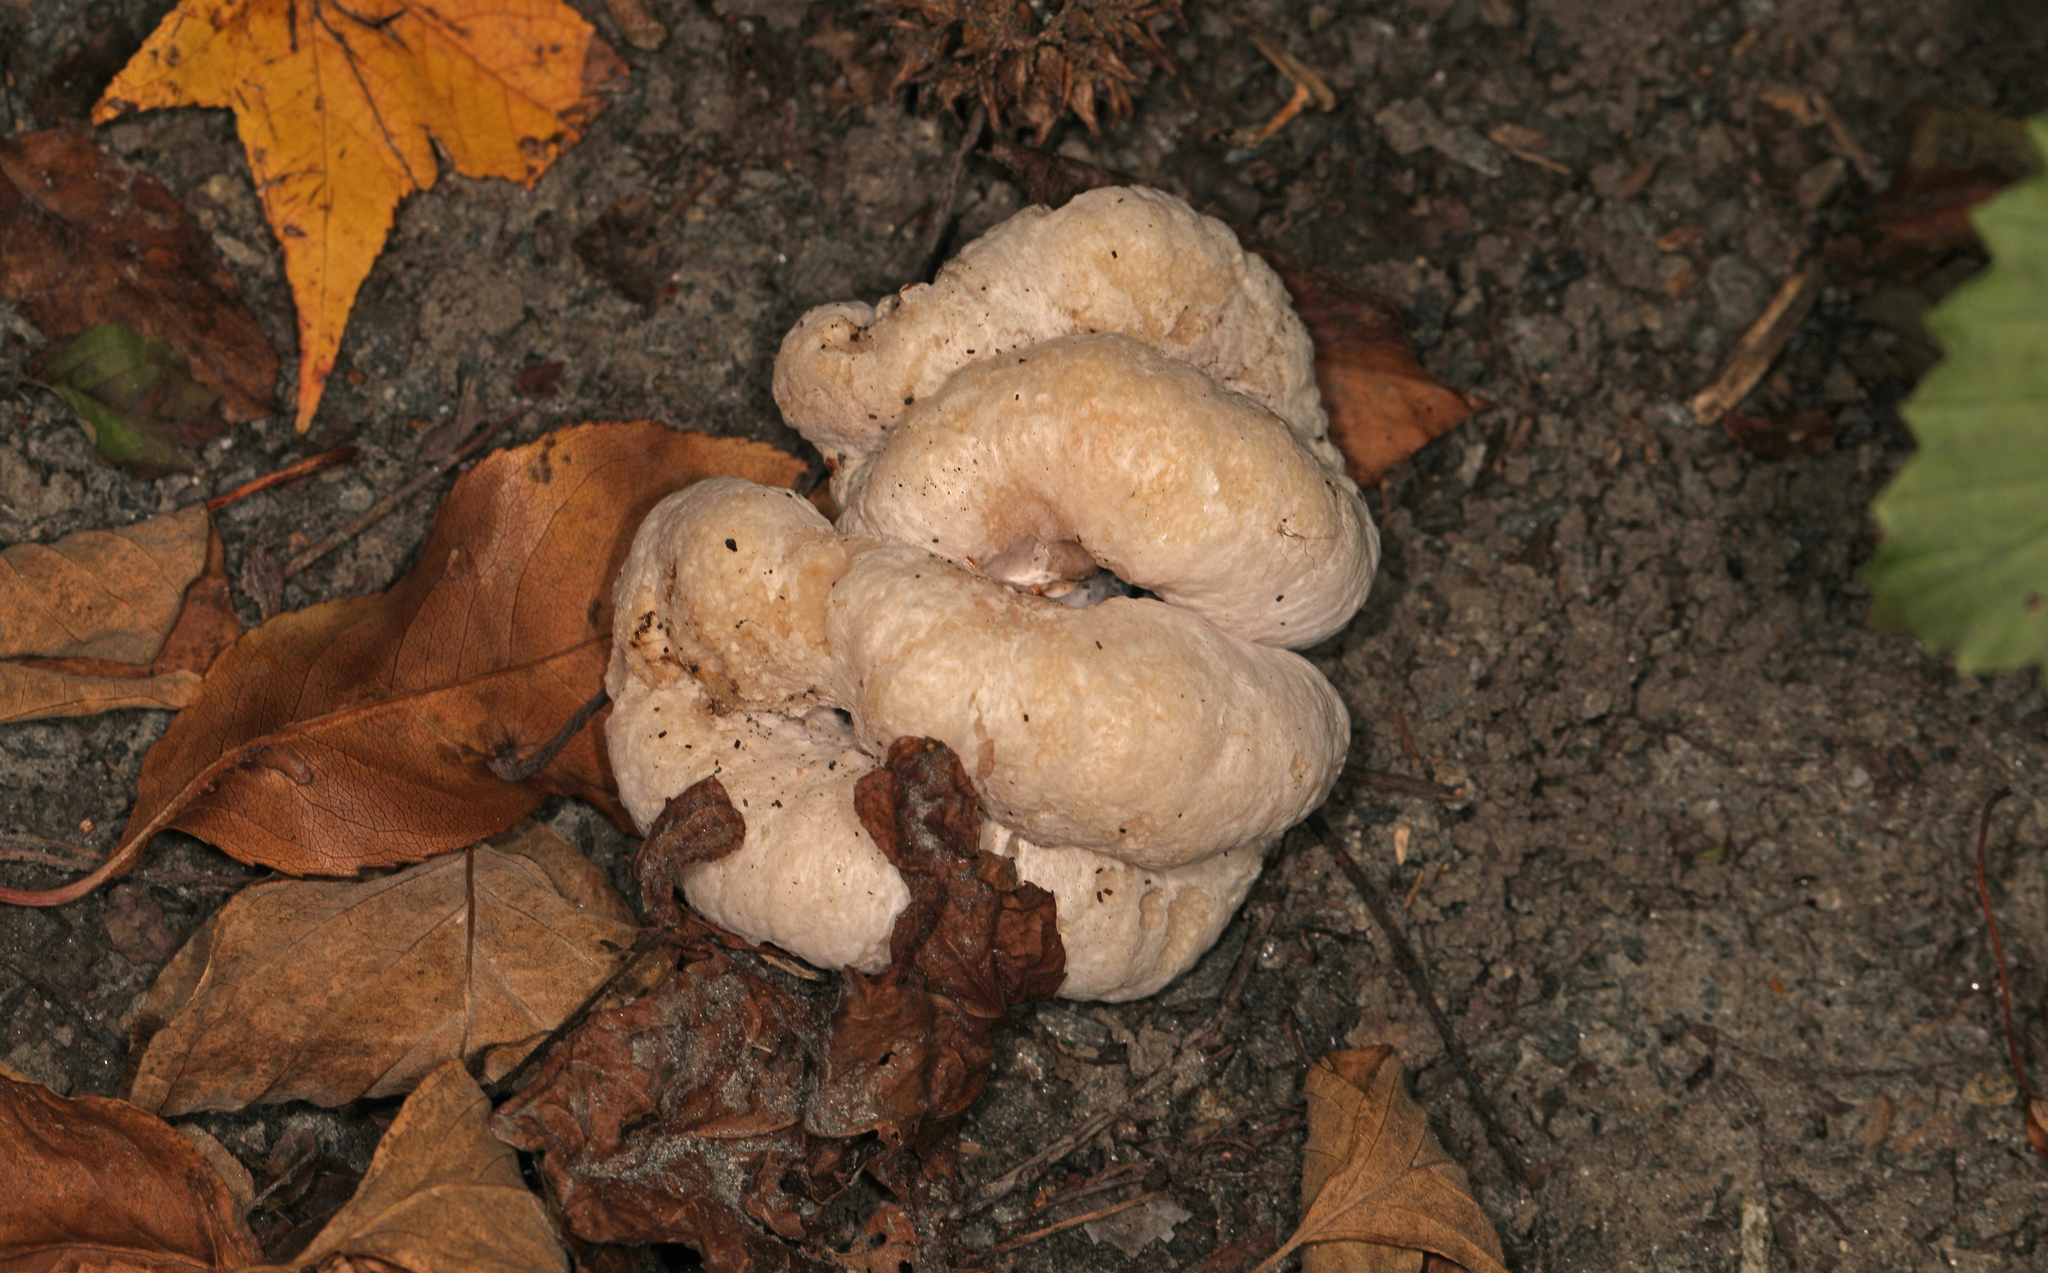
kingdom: Fungi
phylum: Basidiomycota
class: Agaricomycetes
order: Agaricales
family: Entolomataceae
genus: Entoloma
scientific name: Entoloma abortivum
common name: Aborted entoloma
